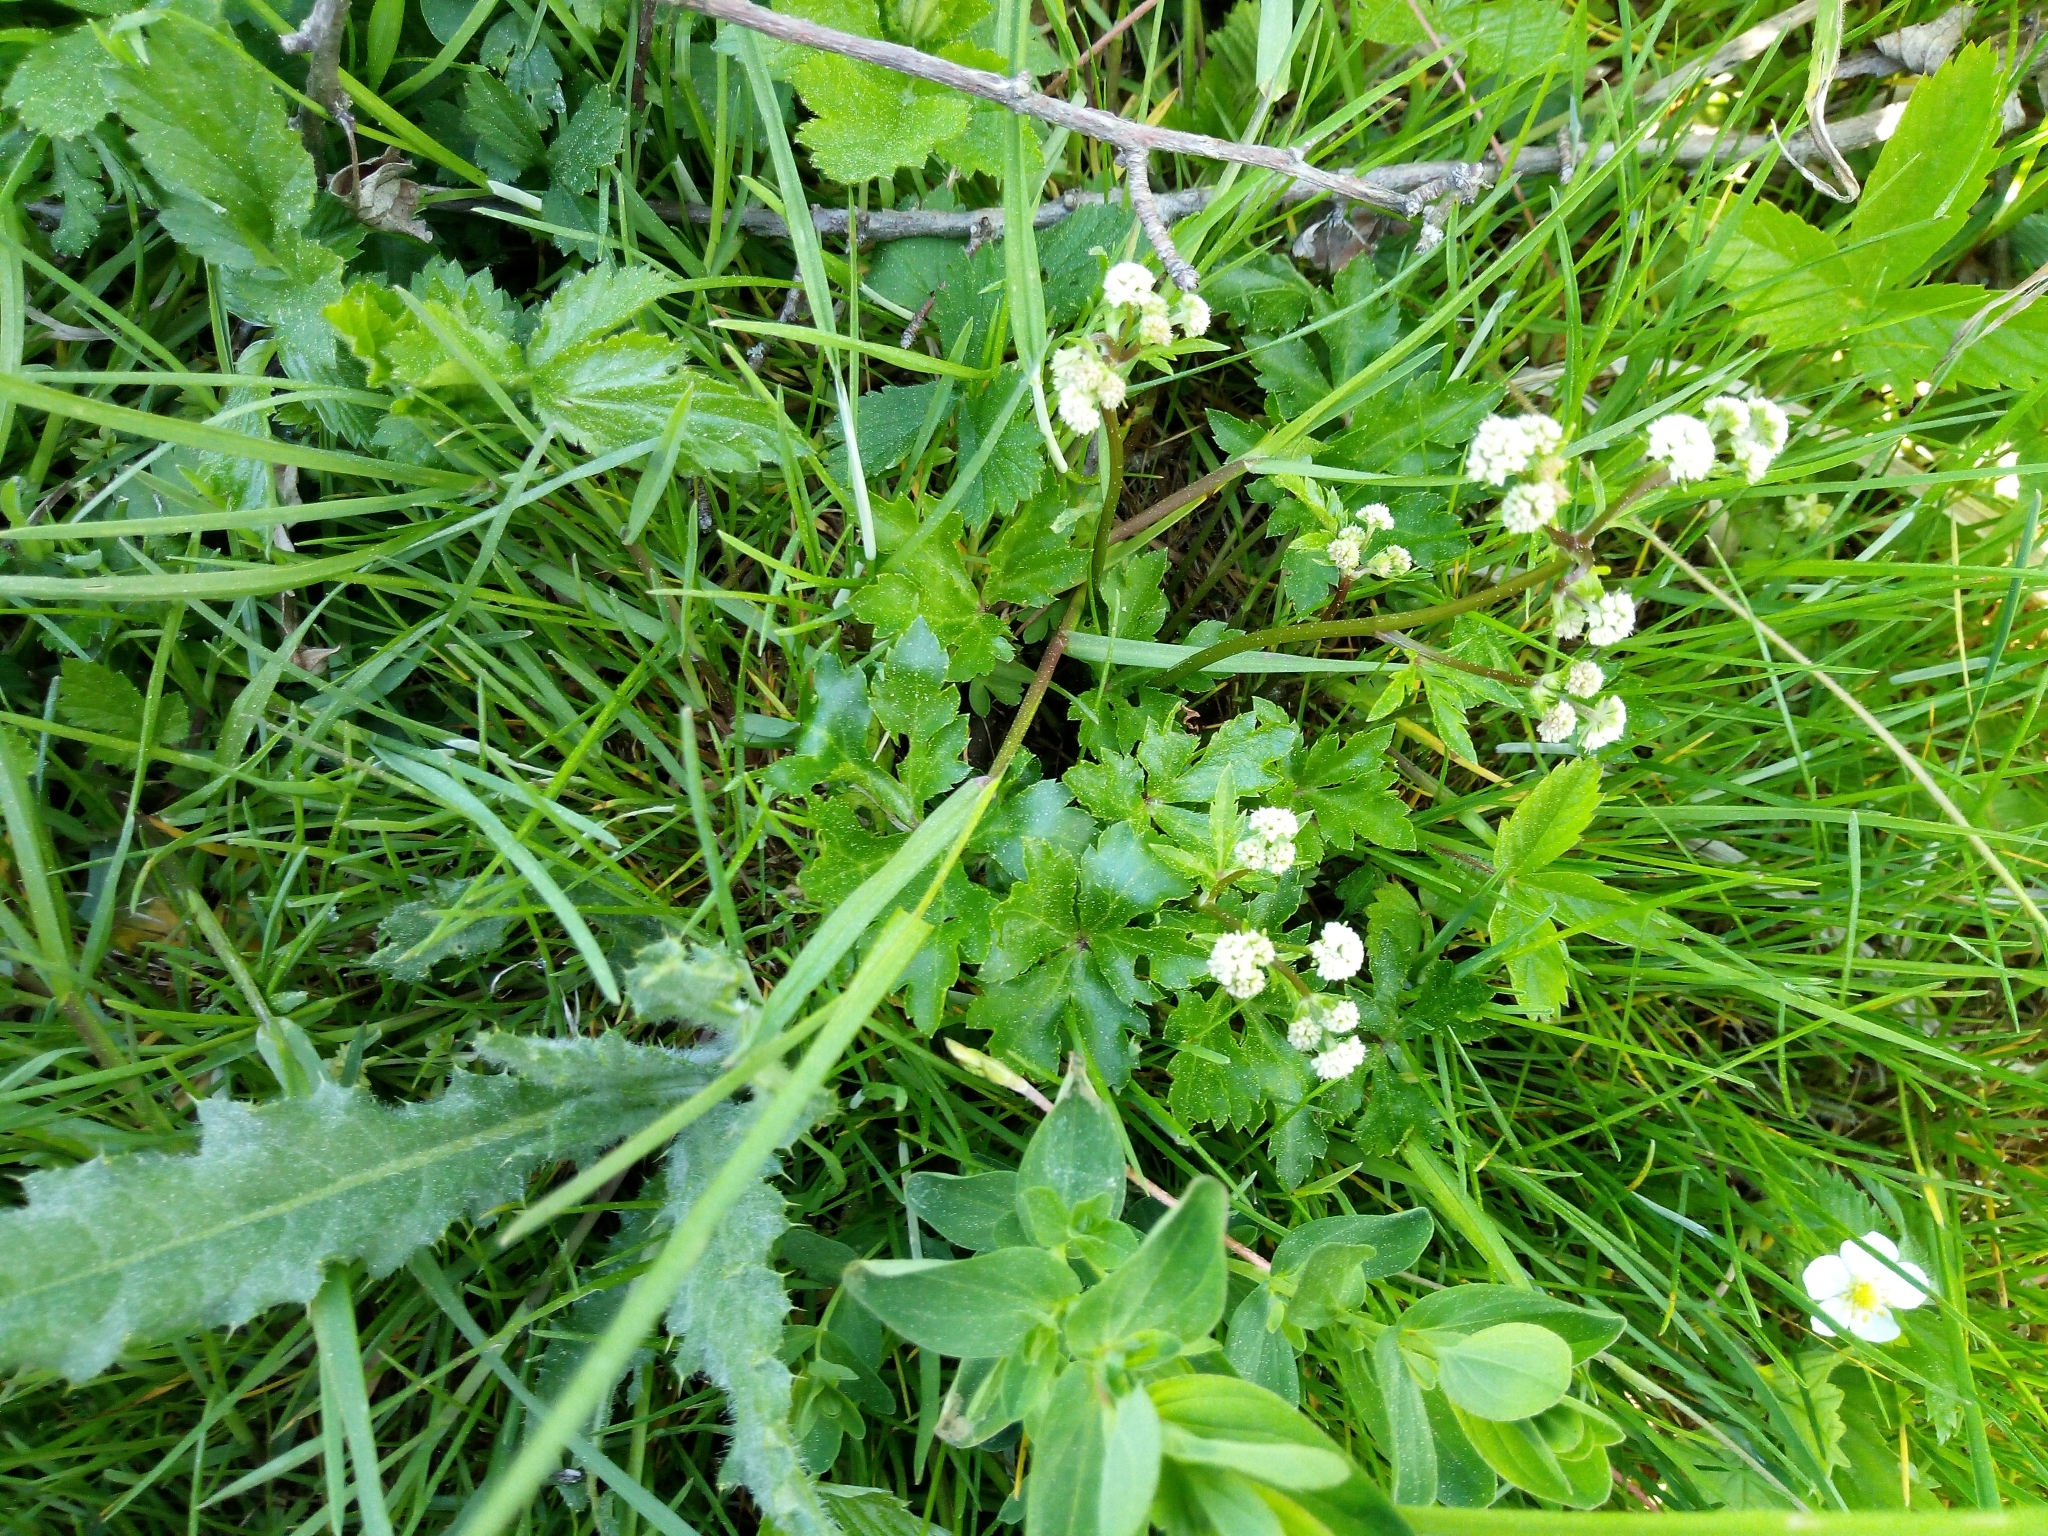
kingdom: Plantae
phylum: Tracheophyta
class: Magnoliopsida
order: Apiales
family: Apiaceae
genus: Sanicula
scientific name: Sanicula europaea
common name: Sanicle
